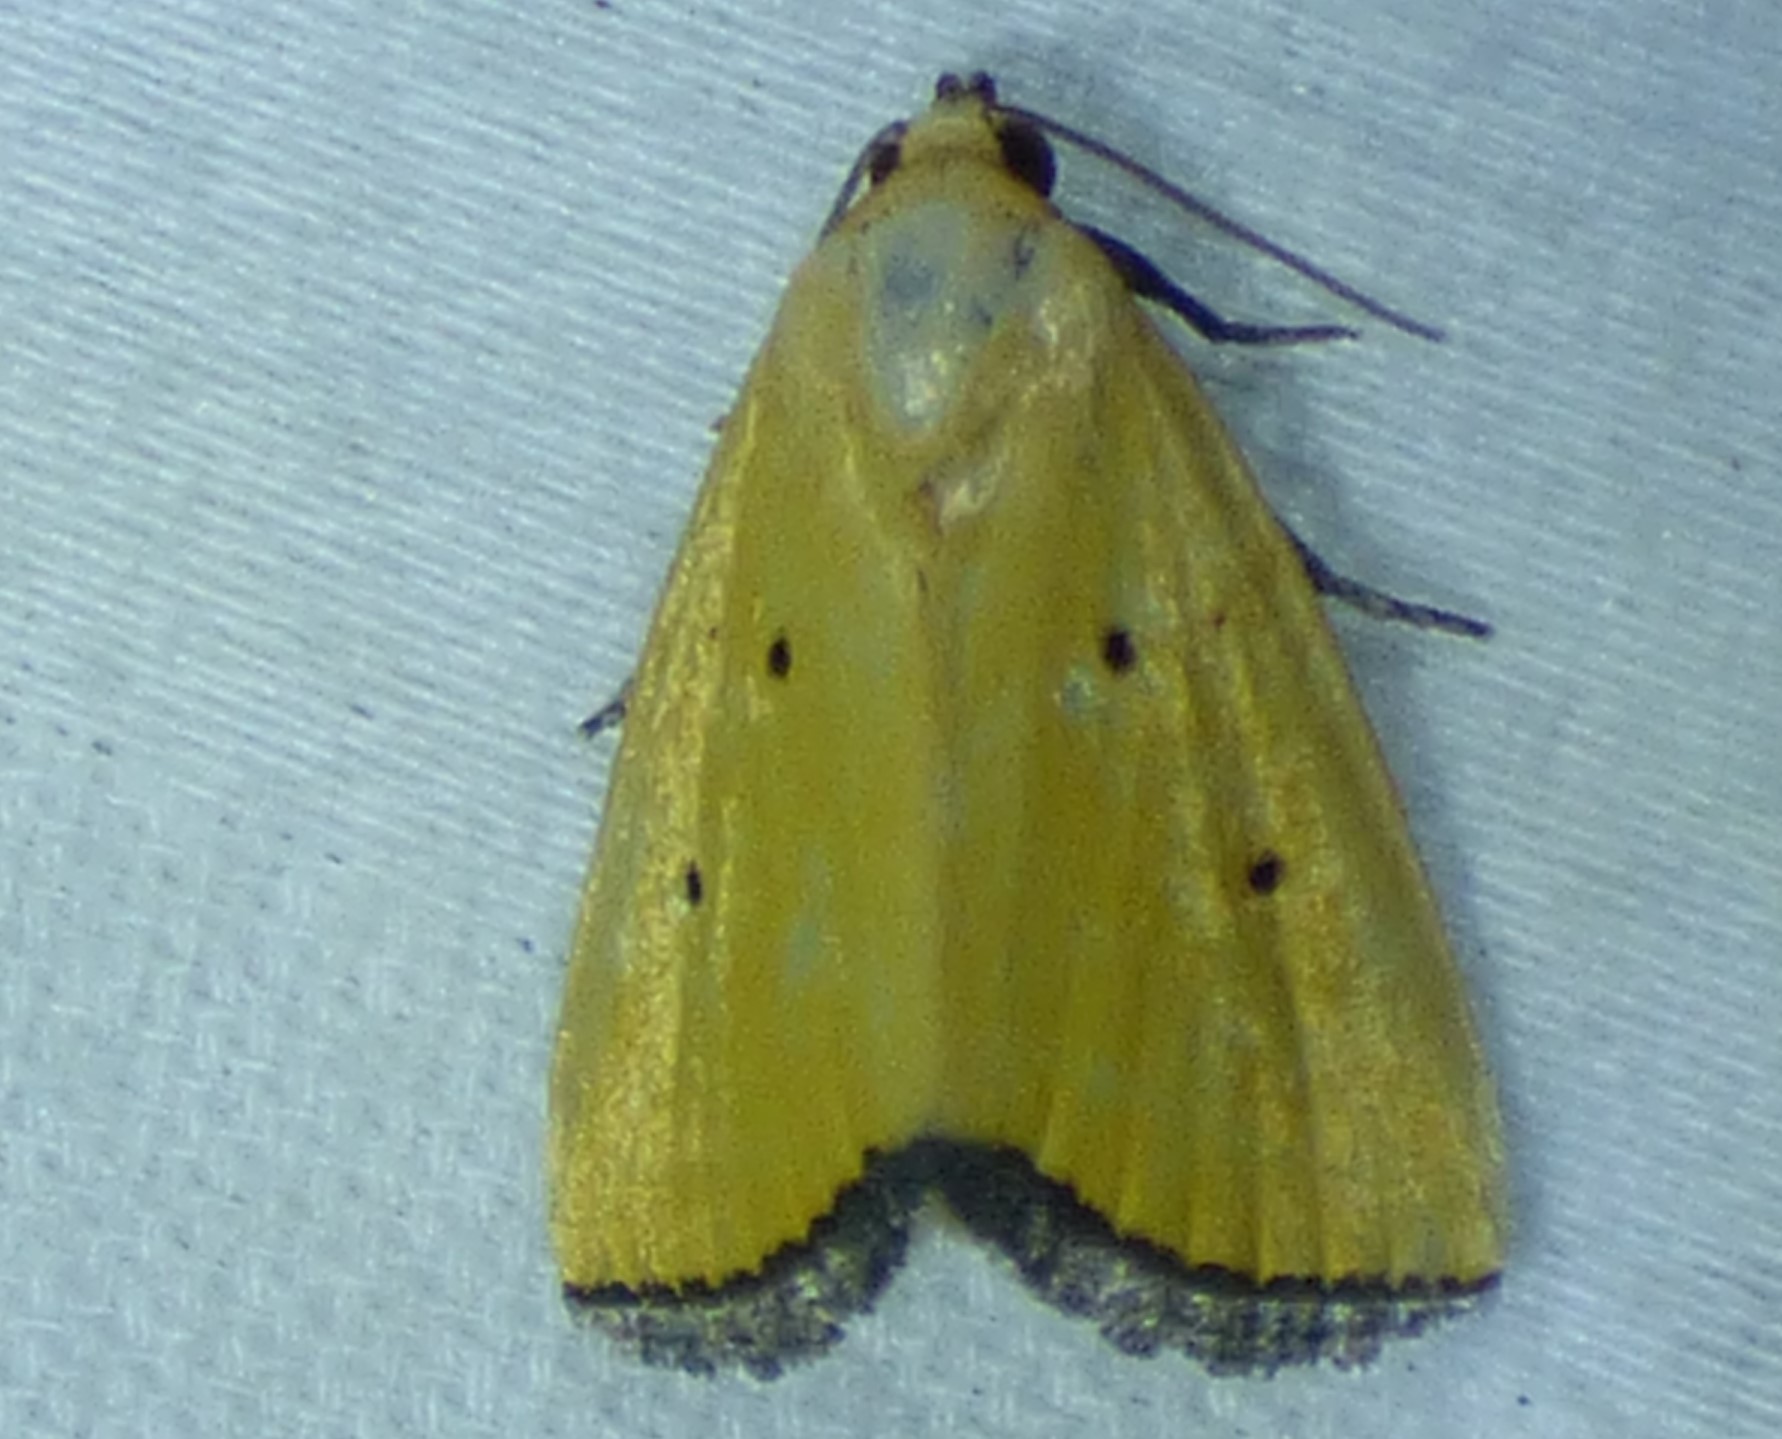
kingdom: Animalia
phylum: Arthropoda
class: Insecta
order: Lepidoptera
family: Noctuidae
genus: Marimatha
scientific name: Marimatha nigrofimbria
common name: Black-bordered lemon moth
